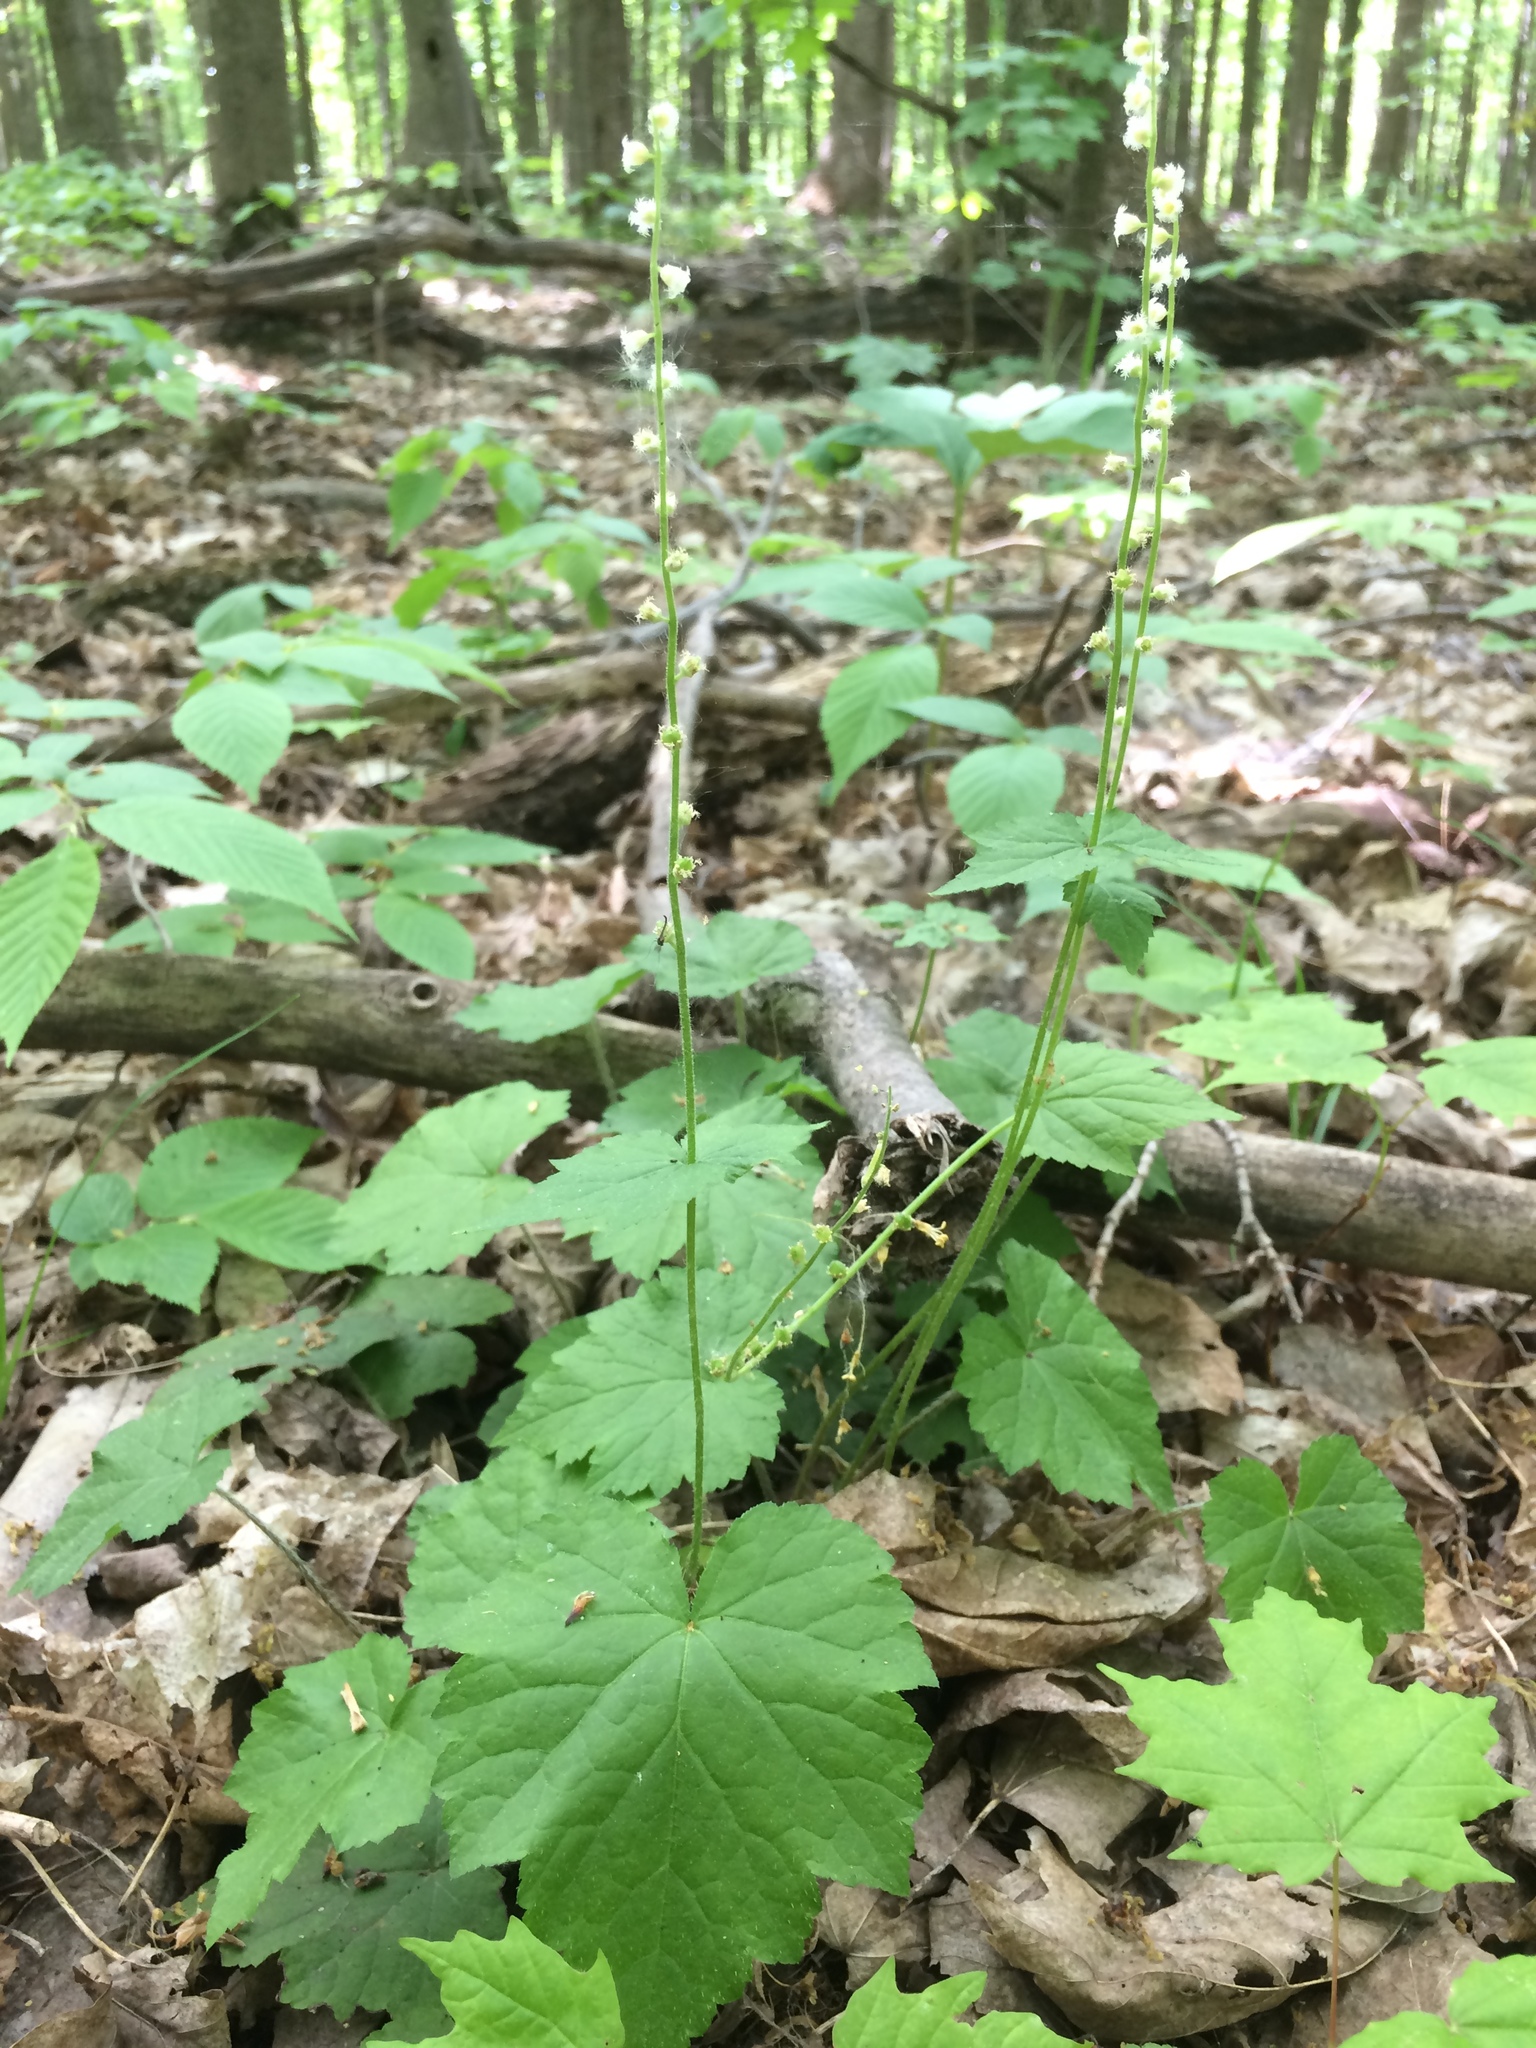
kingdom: Plantae
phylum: Tracheophyta
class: Magnoliopsida
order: Saxifragales
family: Saxifragaceae
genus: Mitella
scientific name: Mitella diphylla
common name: Coolwort
